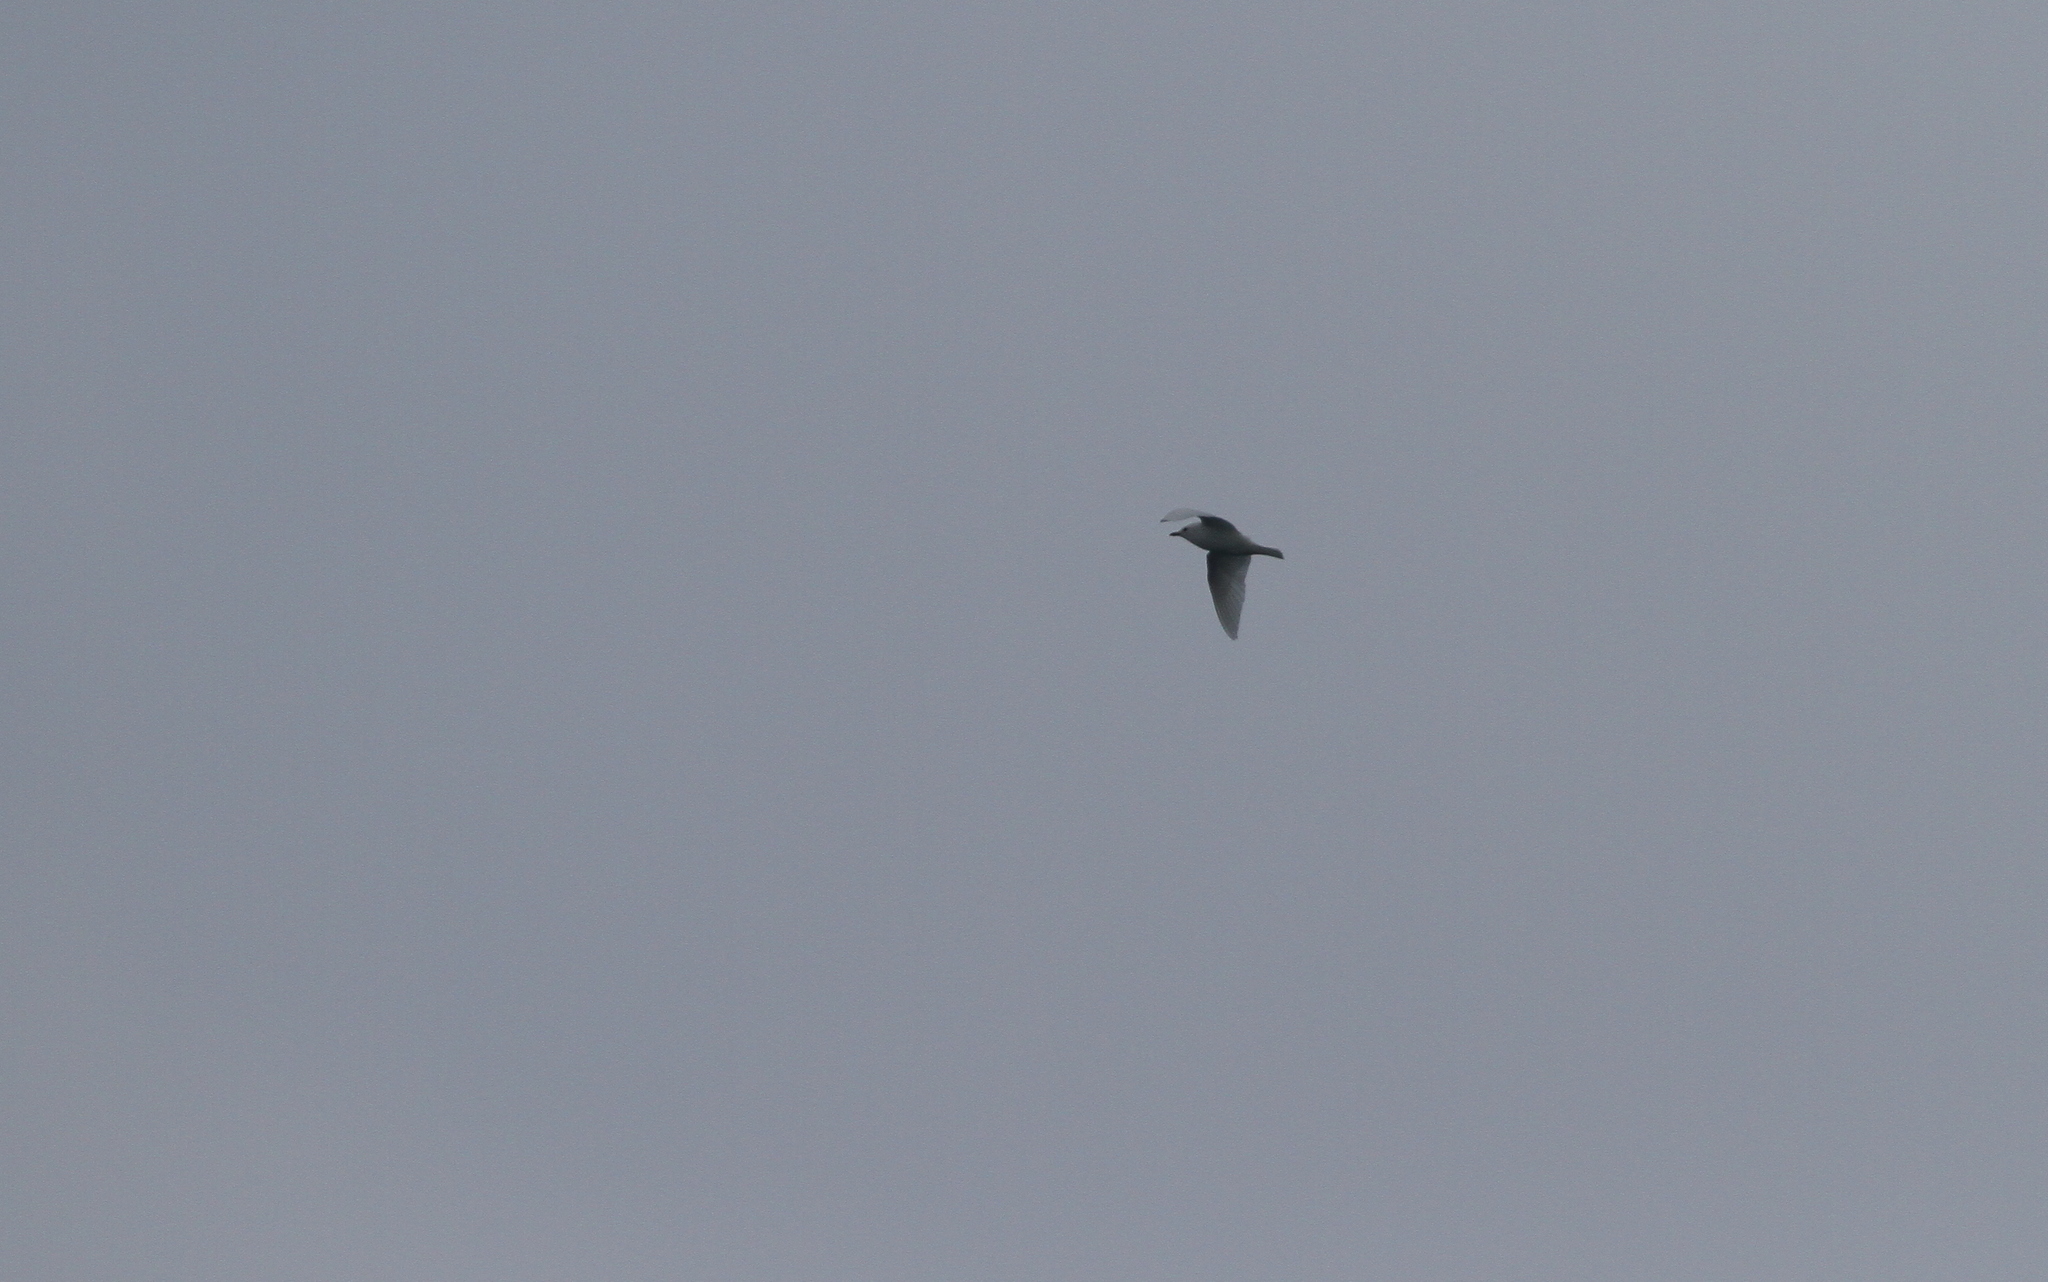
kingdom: Animalia
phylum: Chordata
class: Aves
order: Charadriiformes
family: Laridae
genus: Pagophila
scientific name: Pagophila eburnea
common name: Ivory gull
